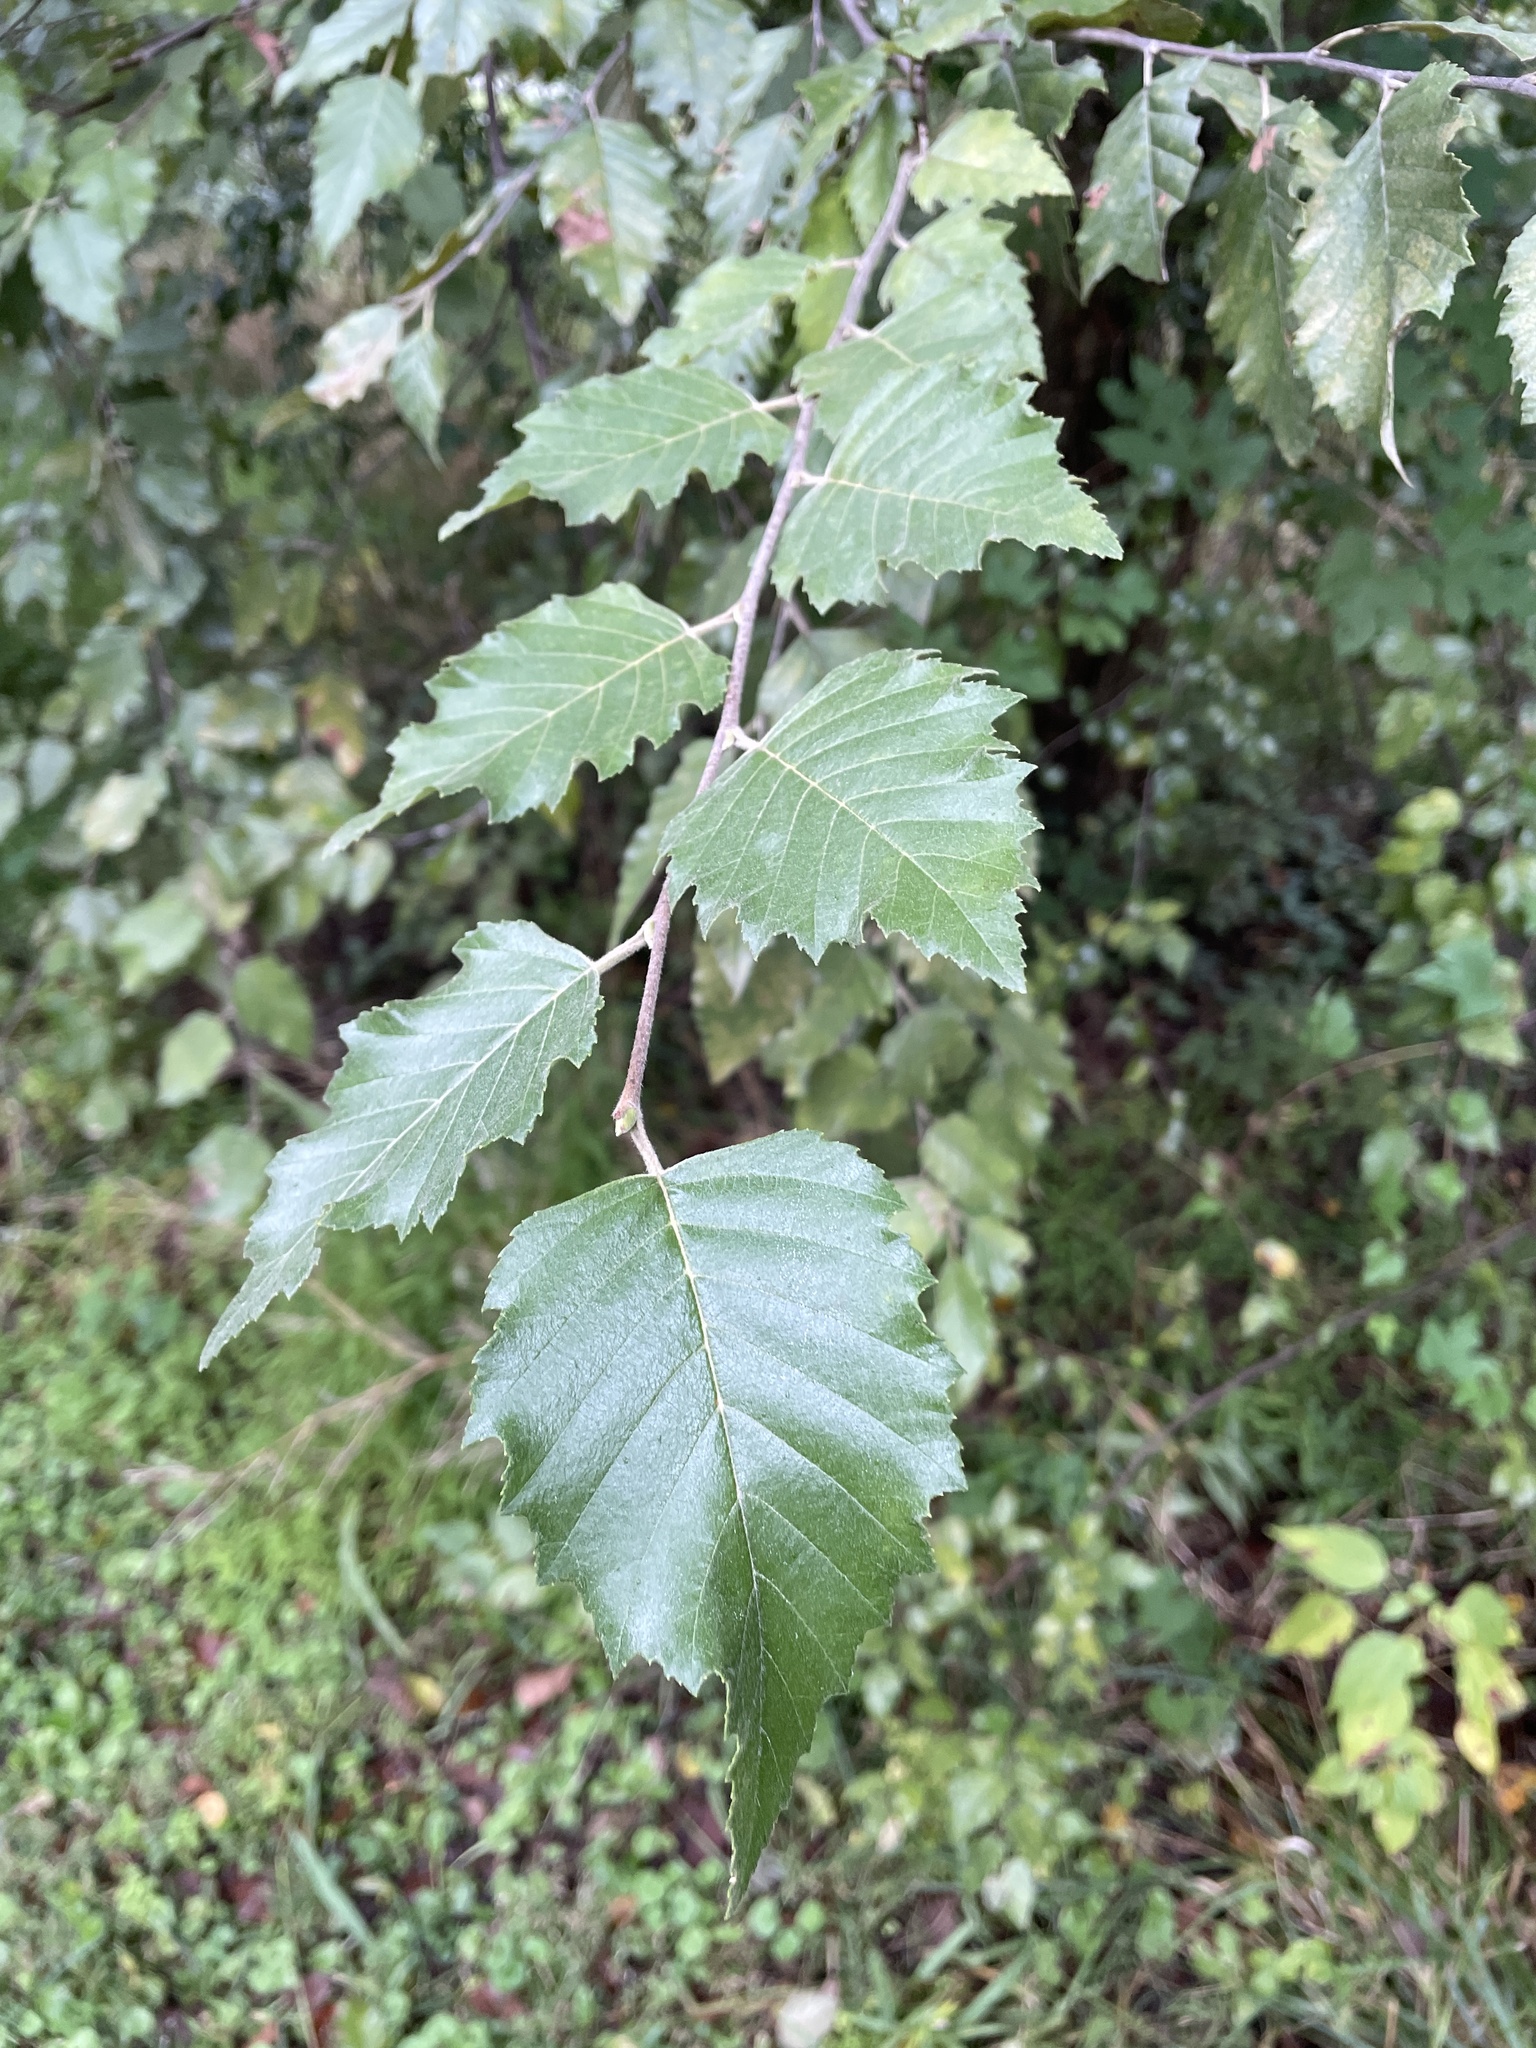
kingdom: Plantae
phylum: Tracheophyta
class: Magnoliopsida
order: Fagales
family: Betulaceae
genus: Betula
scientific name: Betula nigra
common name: Black birch
